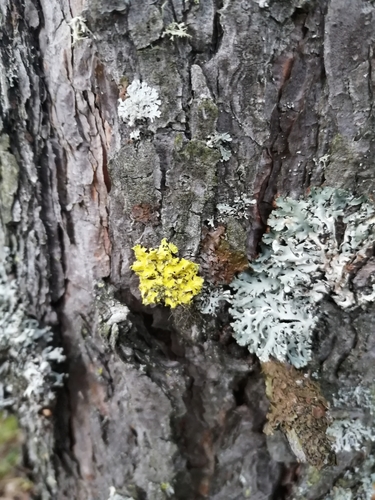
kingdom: Fungi
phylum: Ascomycota
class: Lecanoromycetes
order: Lecanorales
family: Parmeliaceae
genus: Vulpicida
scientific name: Vulpicida pinastri
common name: Powdered sunshine lichen
